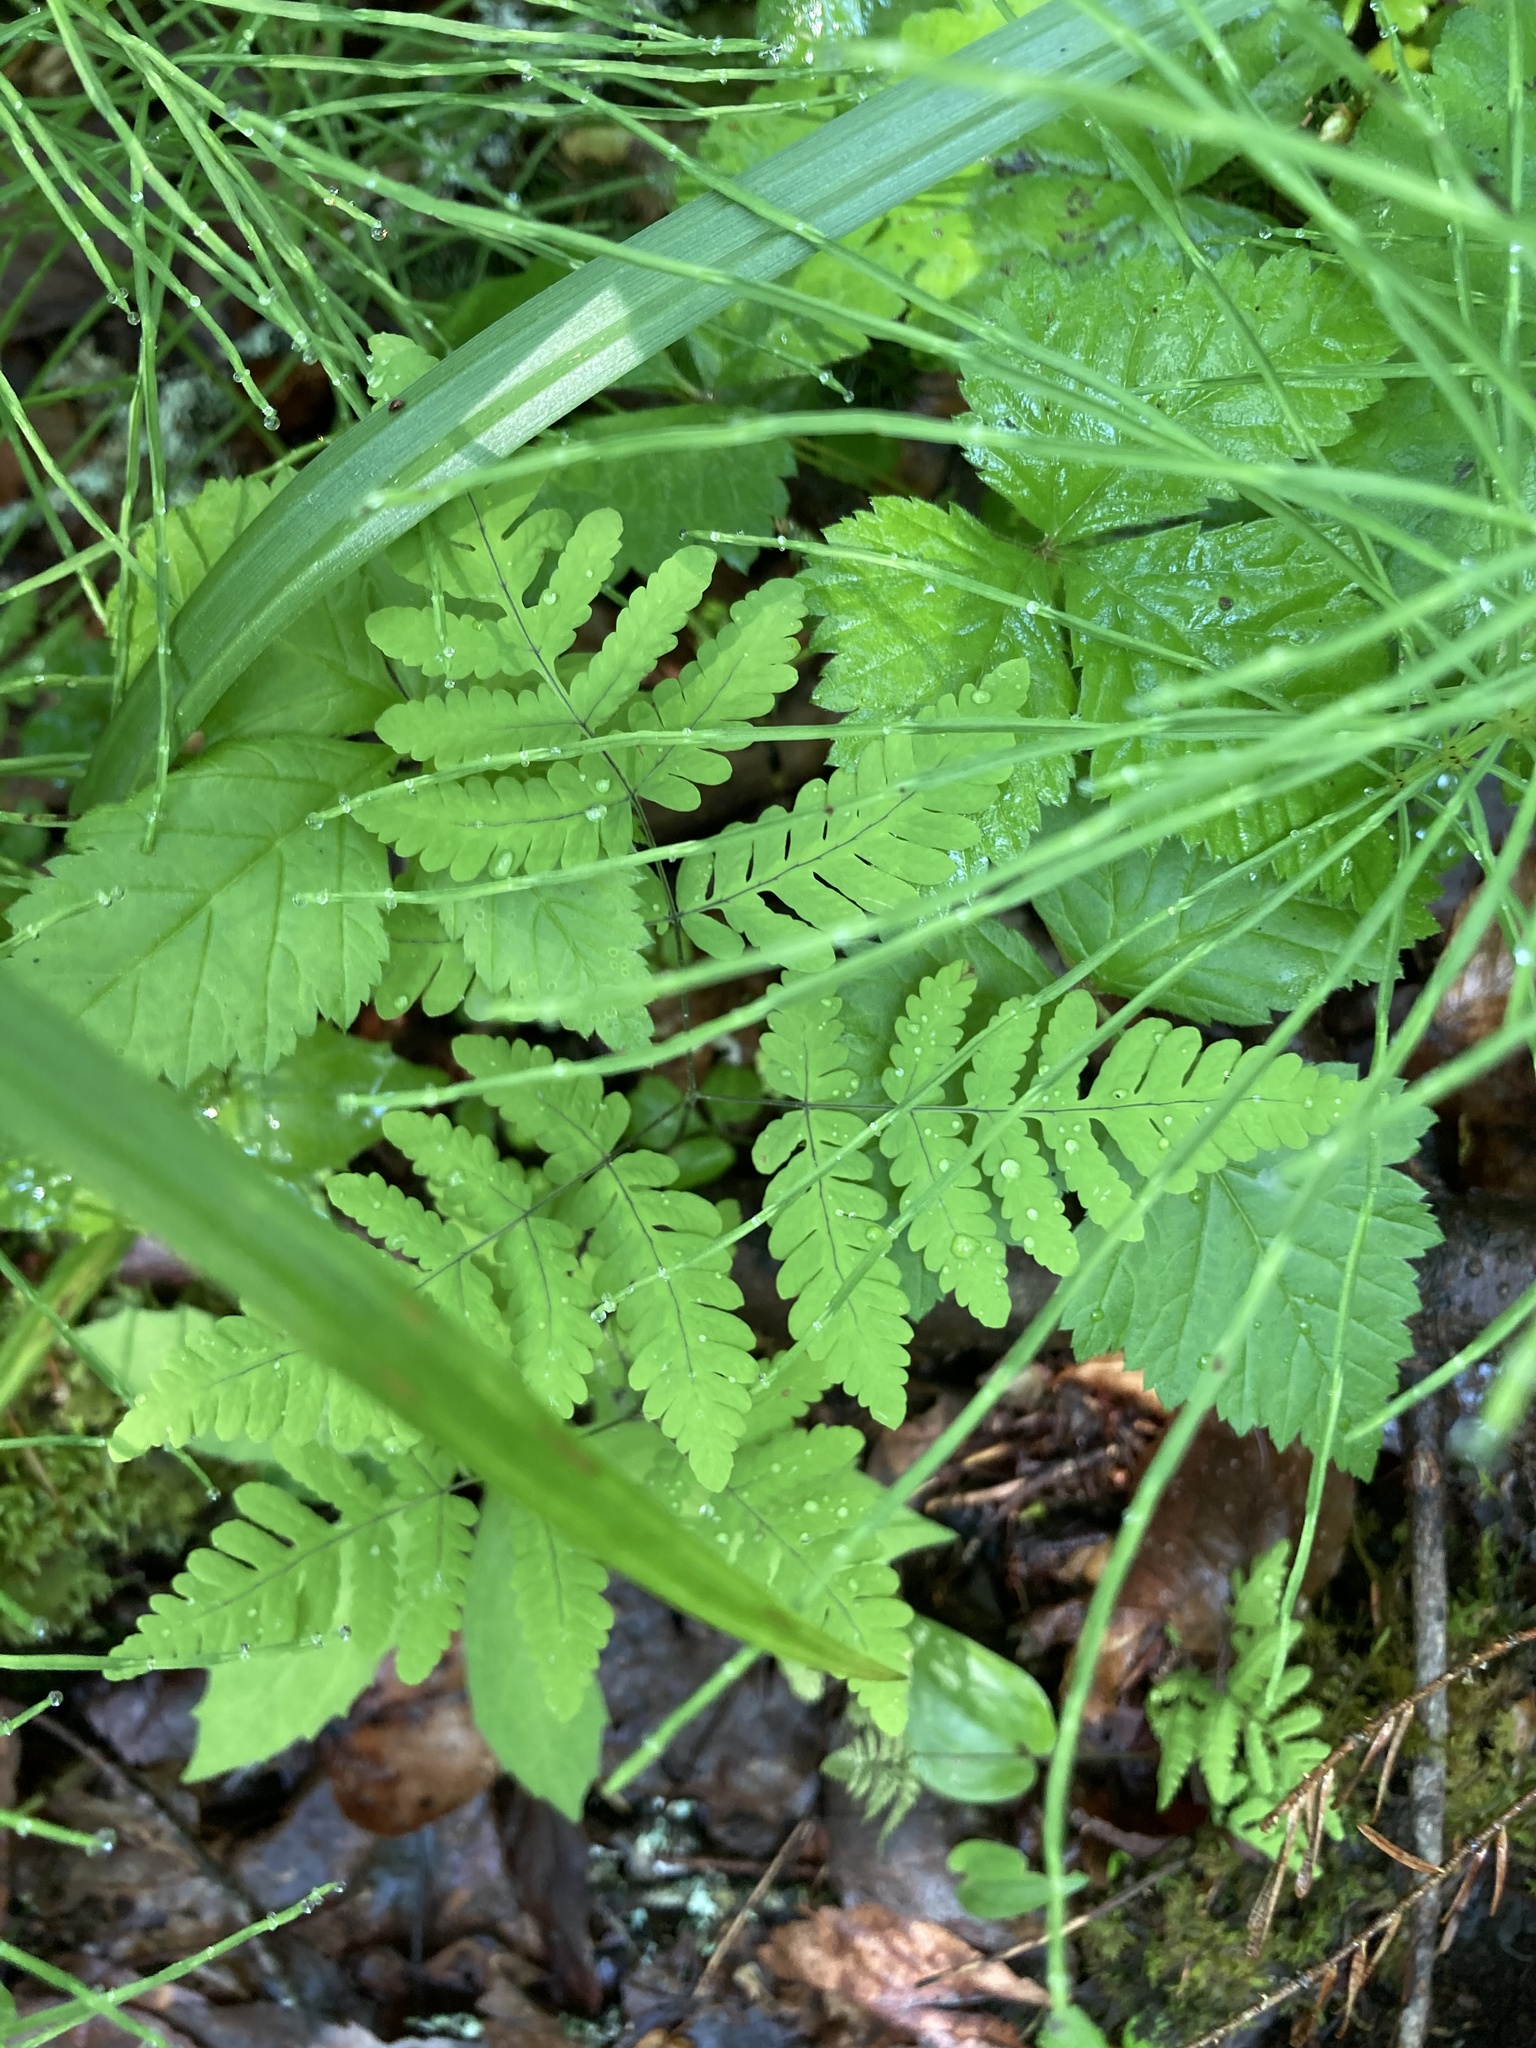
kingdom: Plantae
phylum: Tracheophyta
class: Polypodiopsida
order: Polypodiales
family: Cystopteridaceae
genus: Gymnocarpium
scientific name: Gymnocarpium dryopteris
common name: Oak fern
